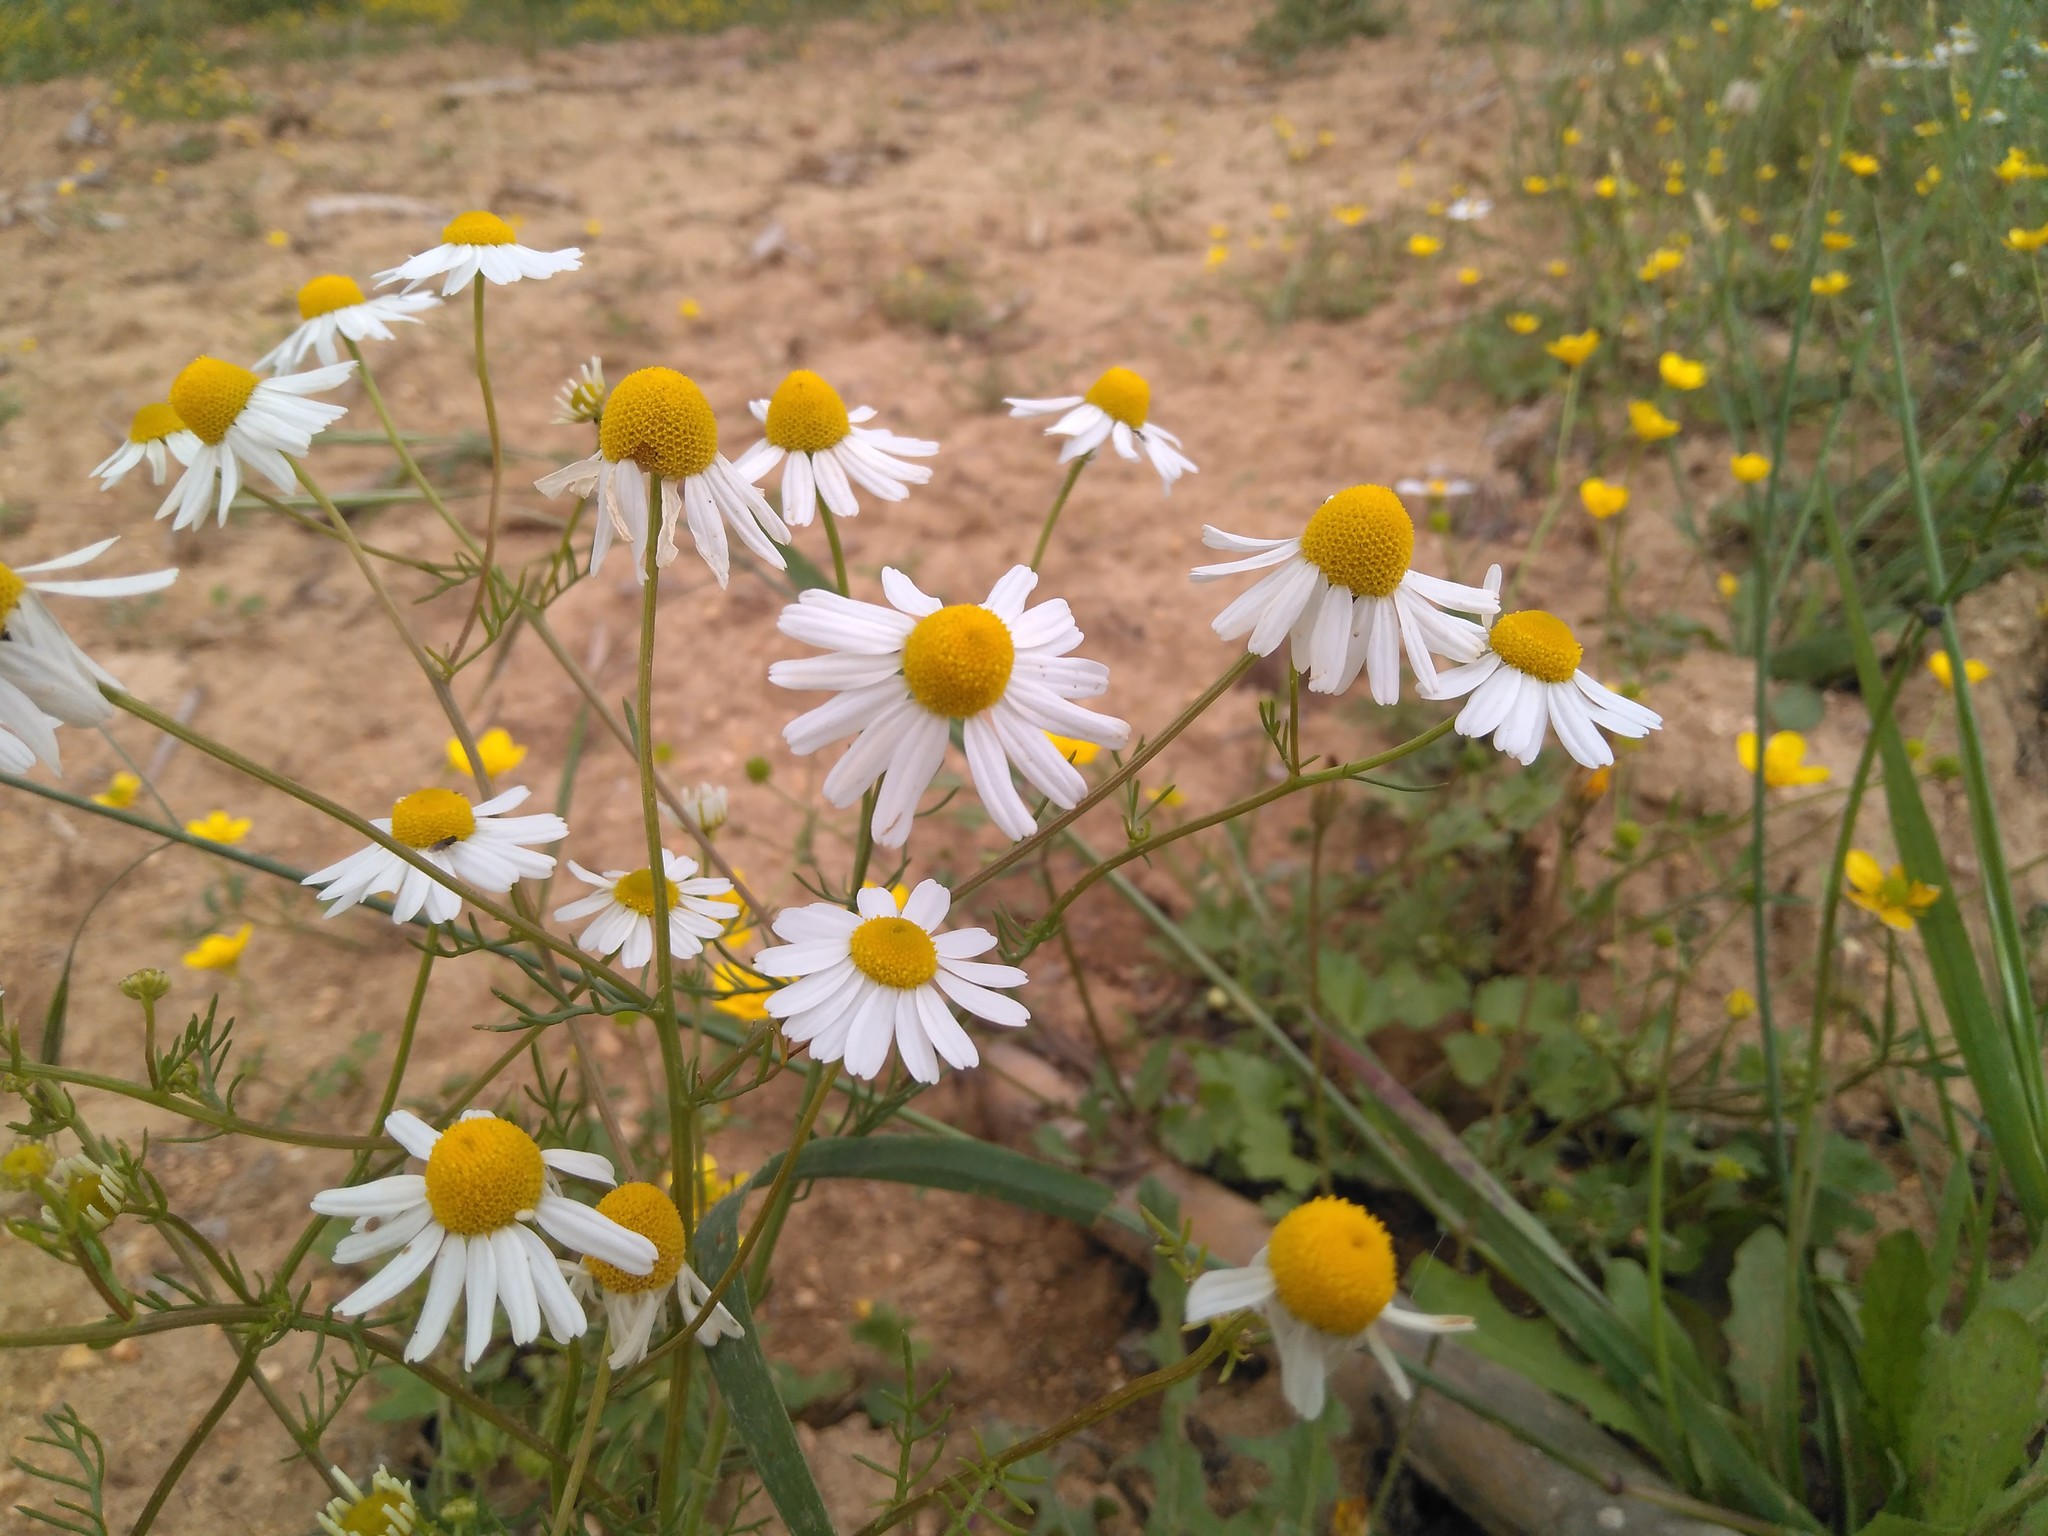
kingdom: Plantae
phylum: Tracheophyta
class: Magnoliopsida
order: Asterales
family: Asteraceae
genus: Matricaria
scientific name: Matricaria chamomilla
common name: Scented mayweed
